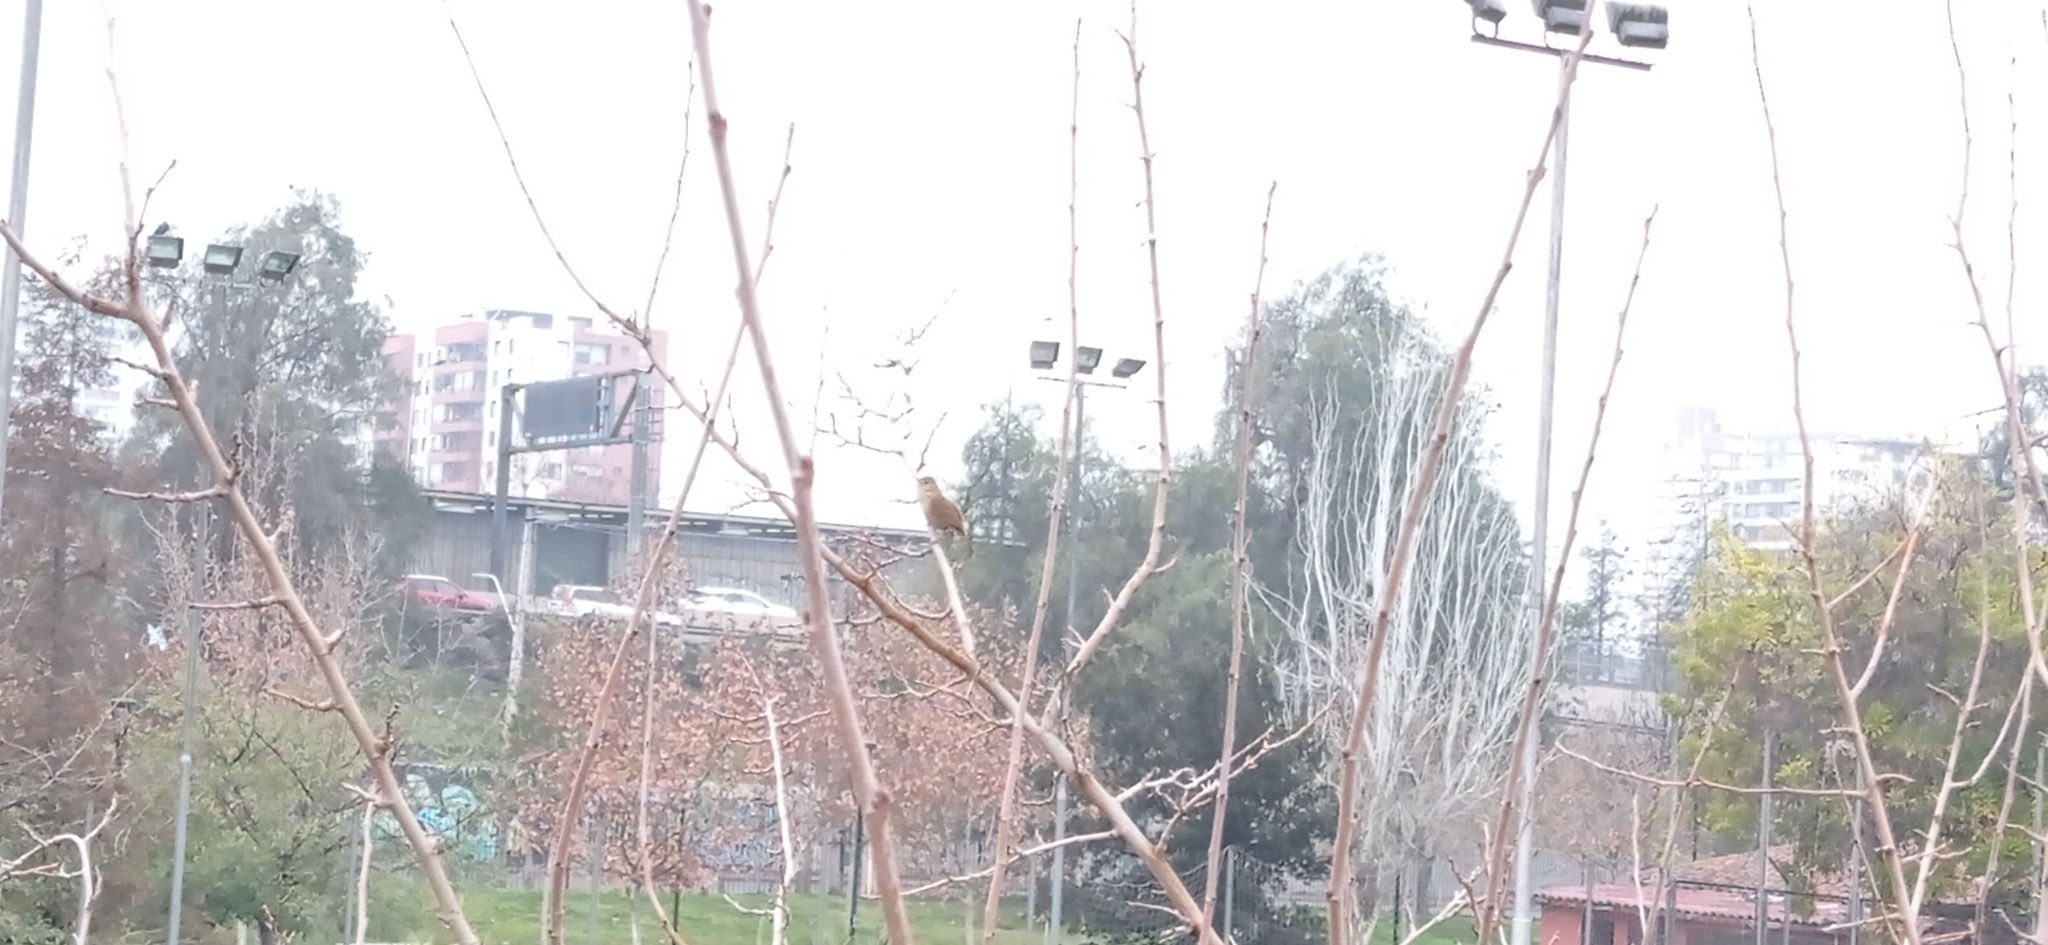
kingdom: Animalia
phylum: Chordata
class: Aves
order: Passeriformes
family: Troglodytidae
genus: Troglodytes
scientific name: Troglodytes aedon
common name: House wren
